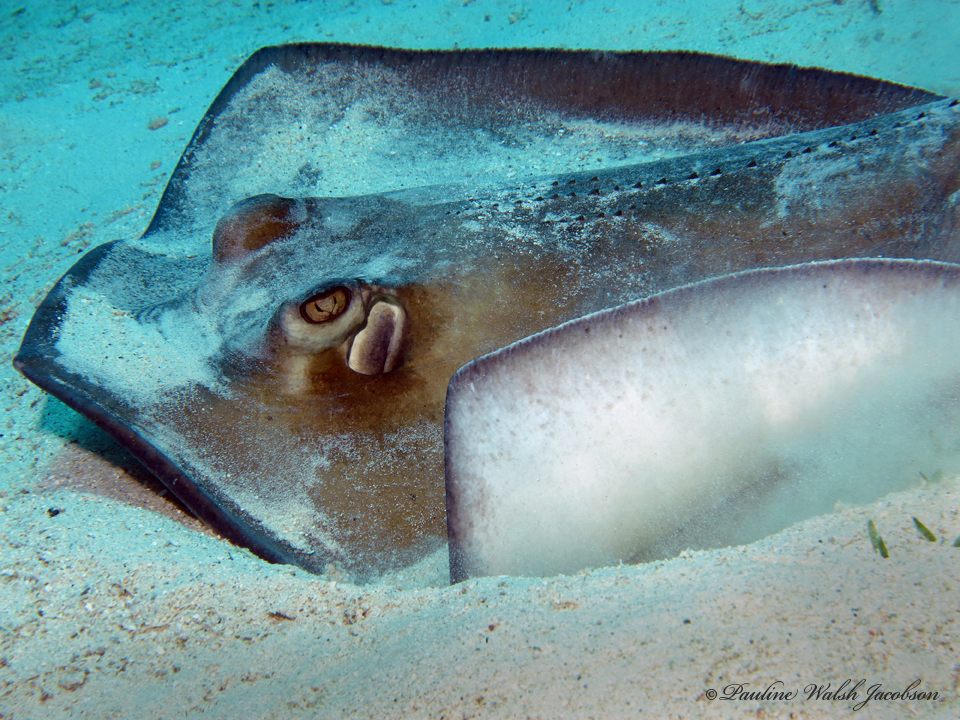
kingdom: Animalia
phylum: Chordata
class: Elasmobranchii
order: Myliobatiformes
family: Dasyatidae
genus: Hypanus
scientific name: Hypanus americanus
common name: Southern stingray
